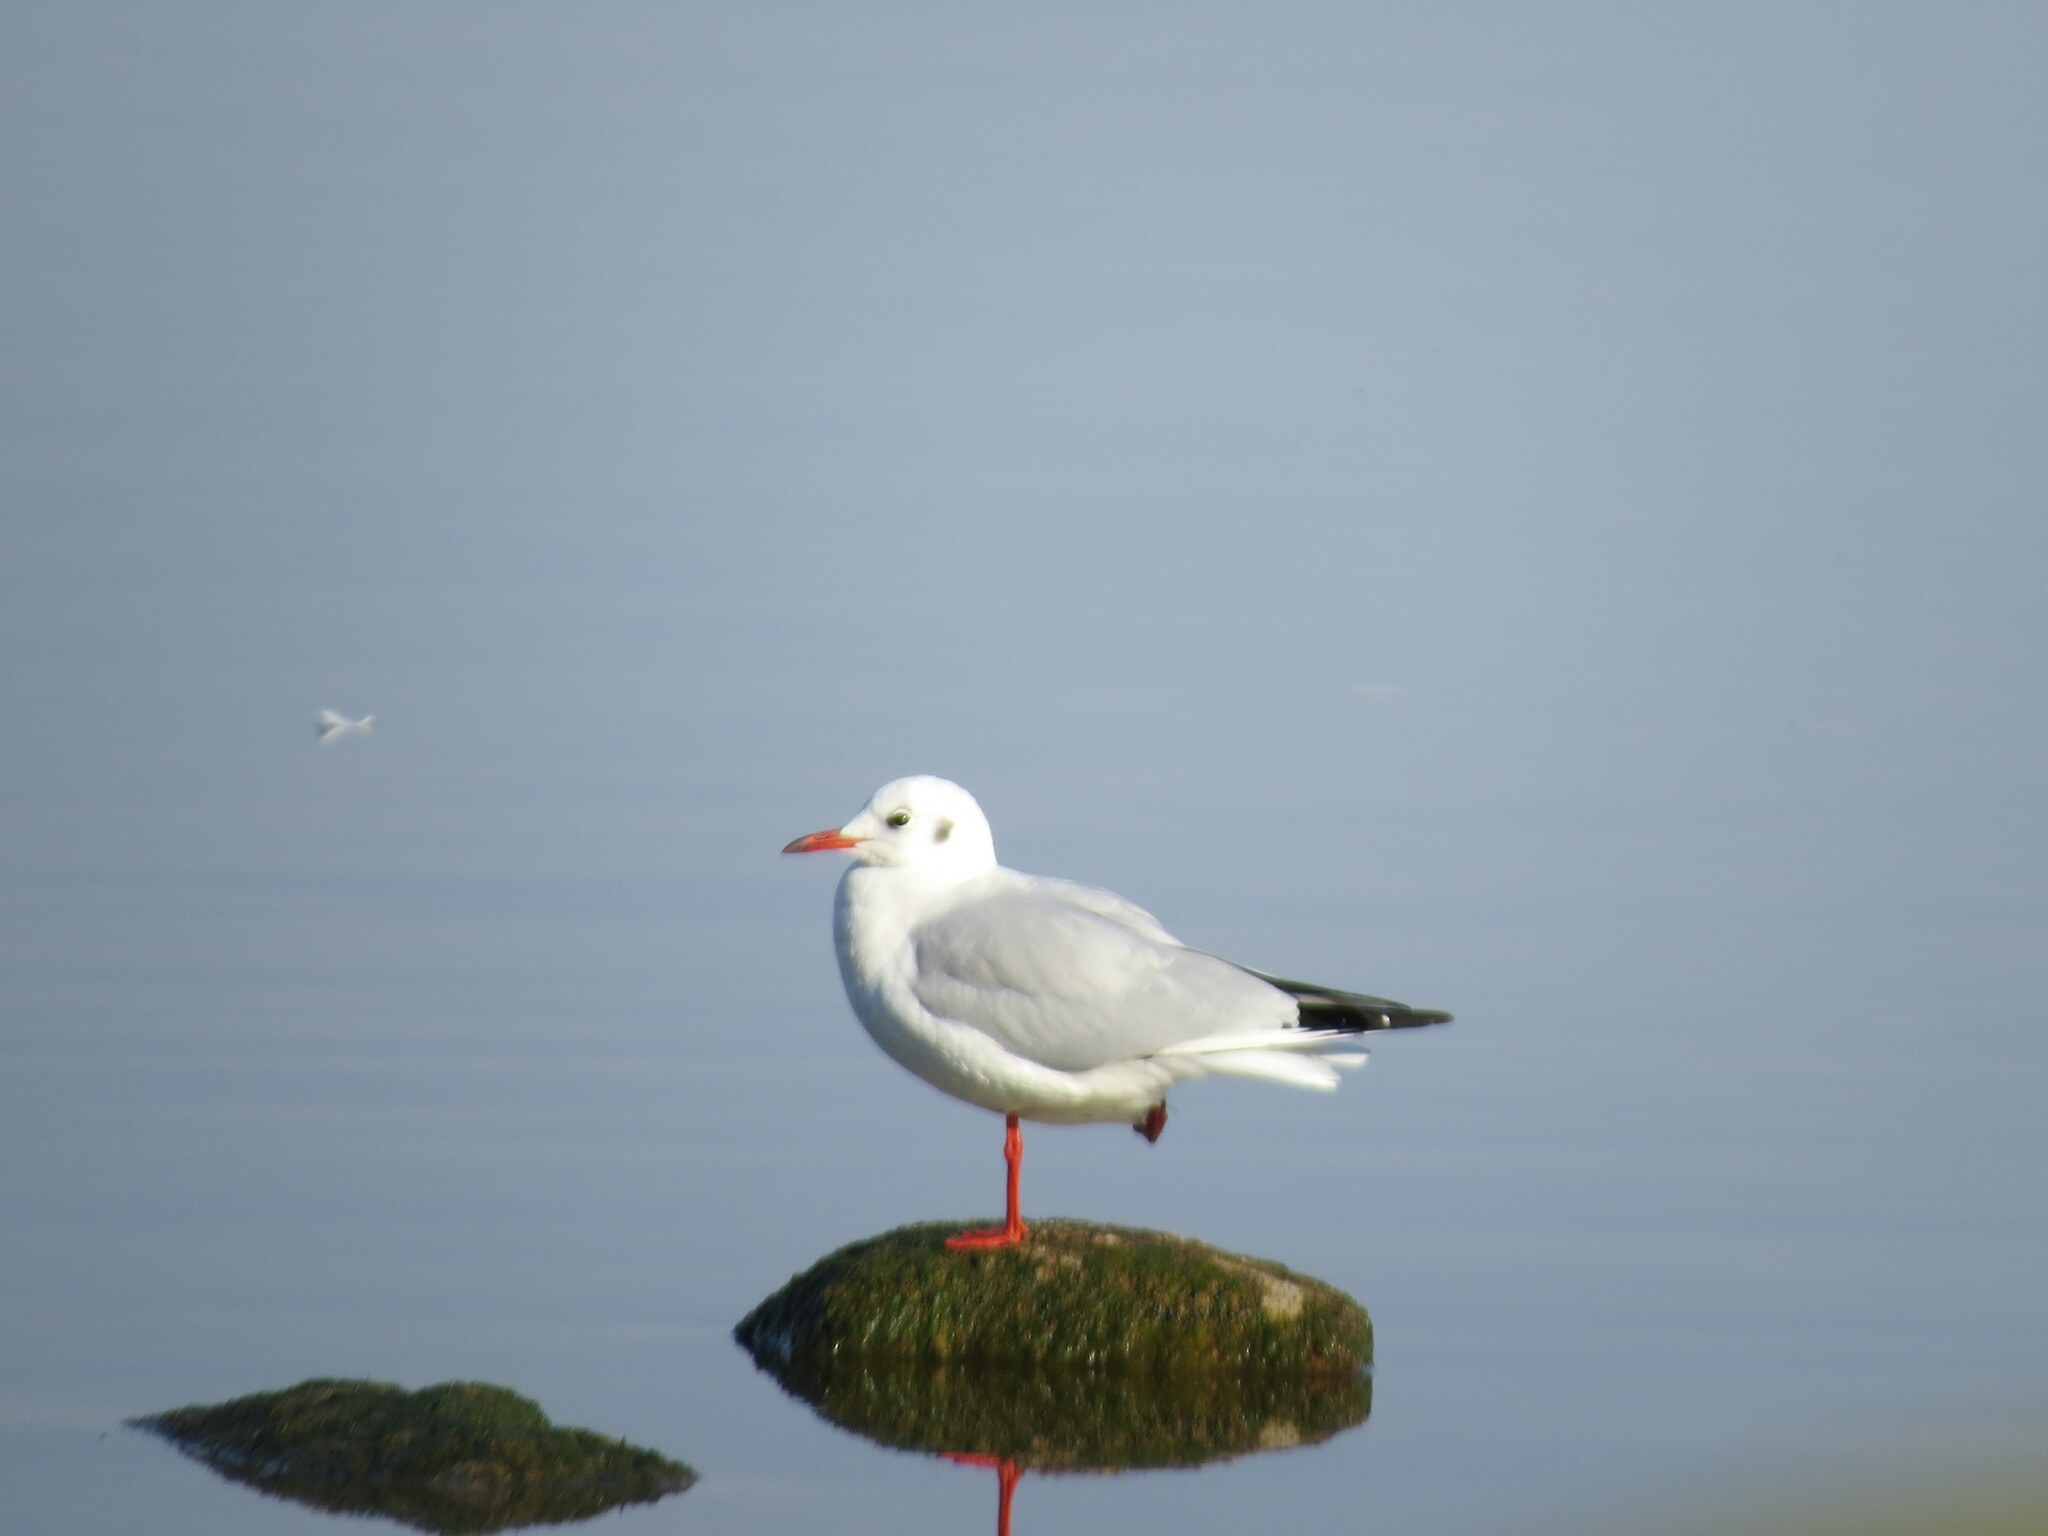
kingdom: Animalia
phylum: Chordata
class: Aves
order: Charadriiformes
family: Laridae
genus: Chroicocephalus
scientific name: Chroicocephalus ridibundus
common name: Black-headed gull
